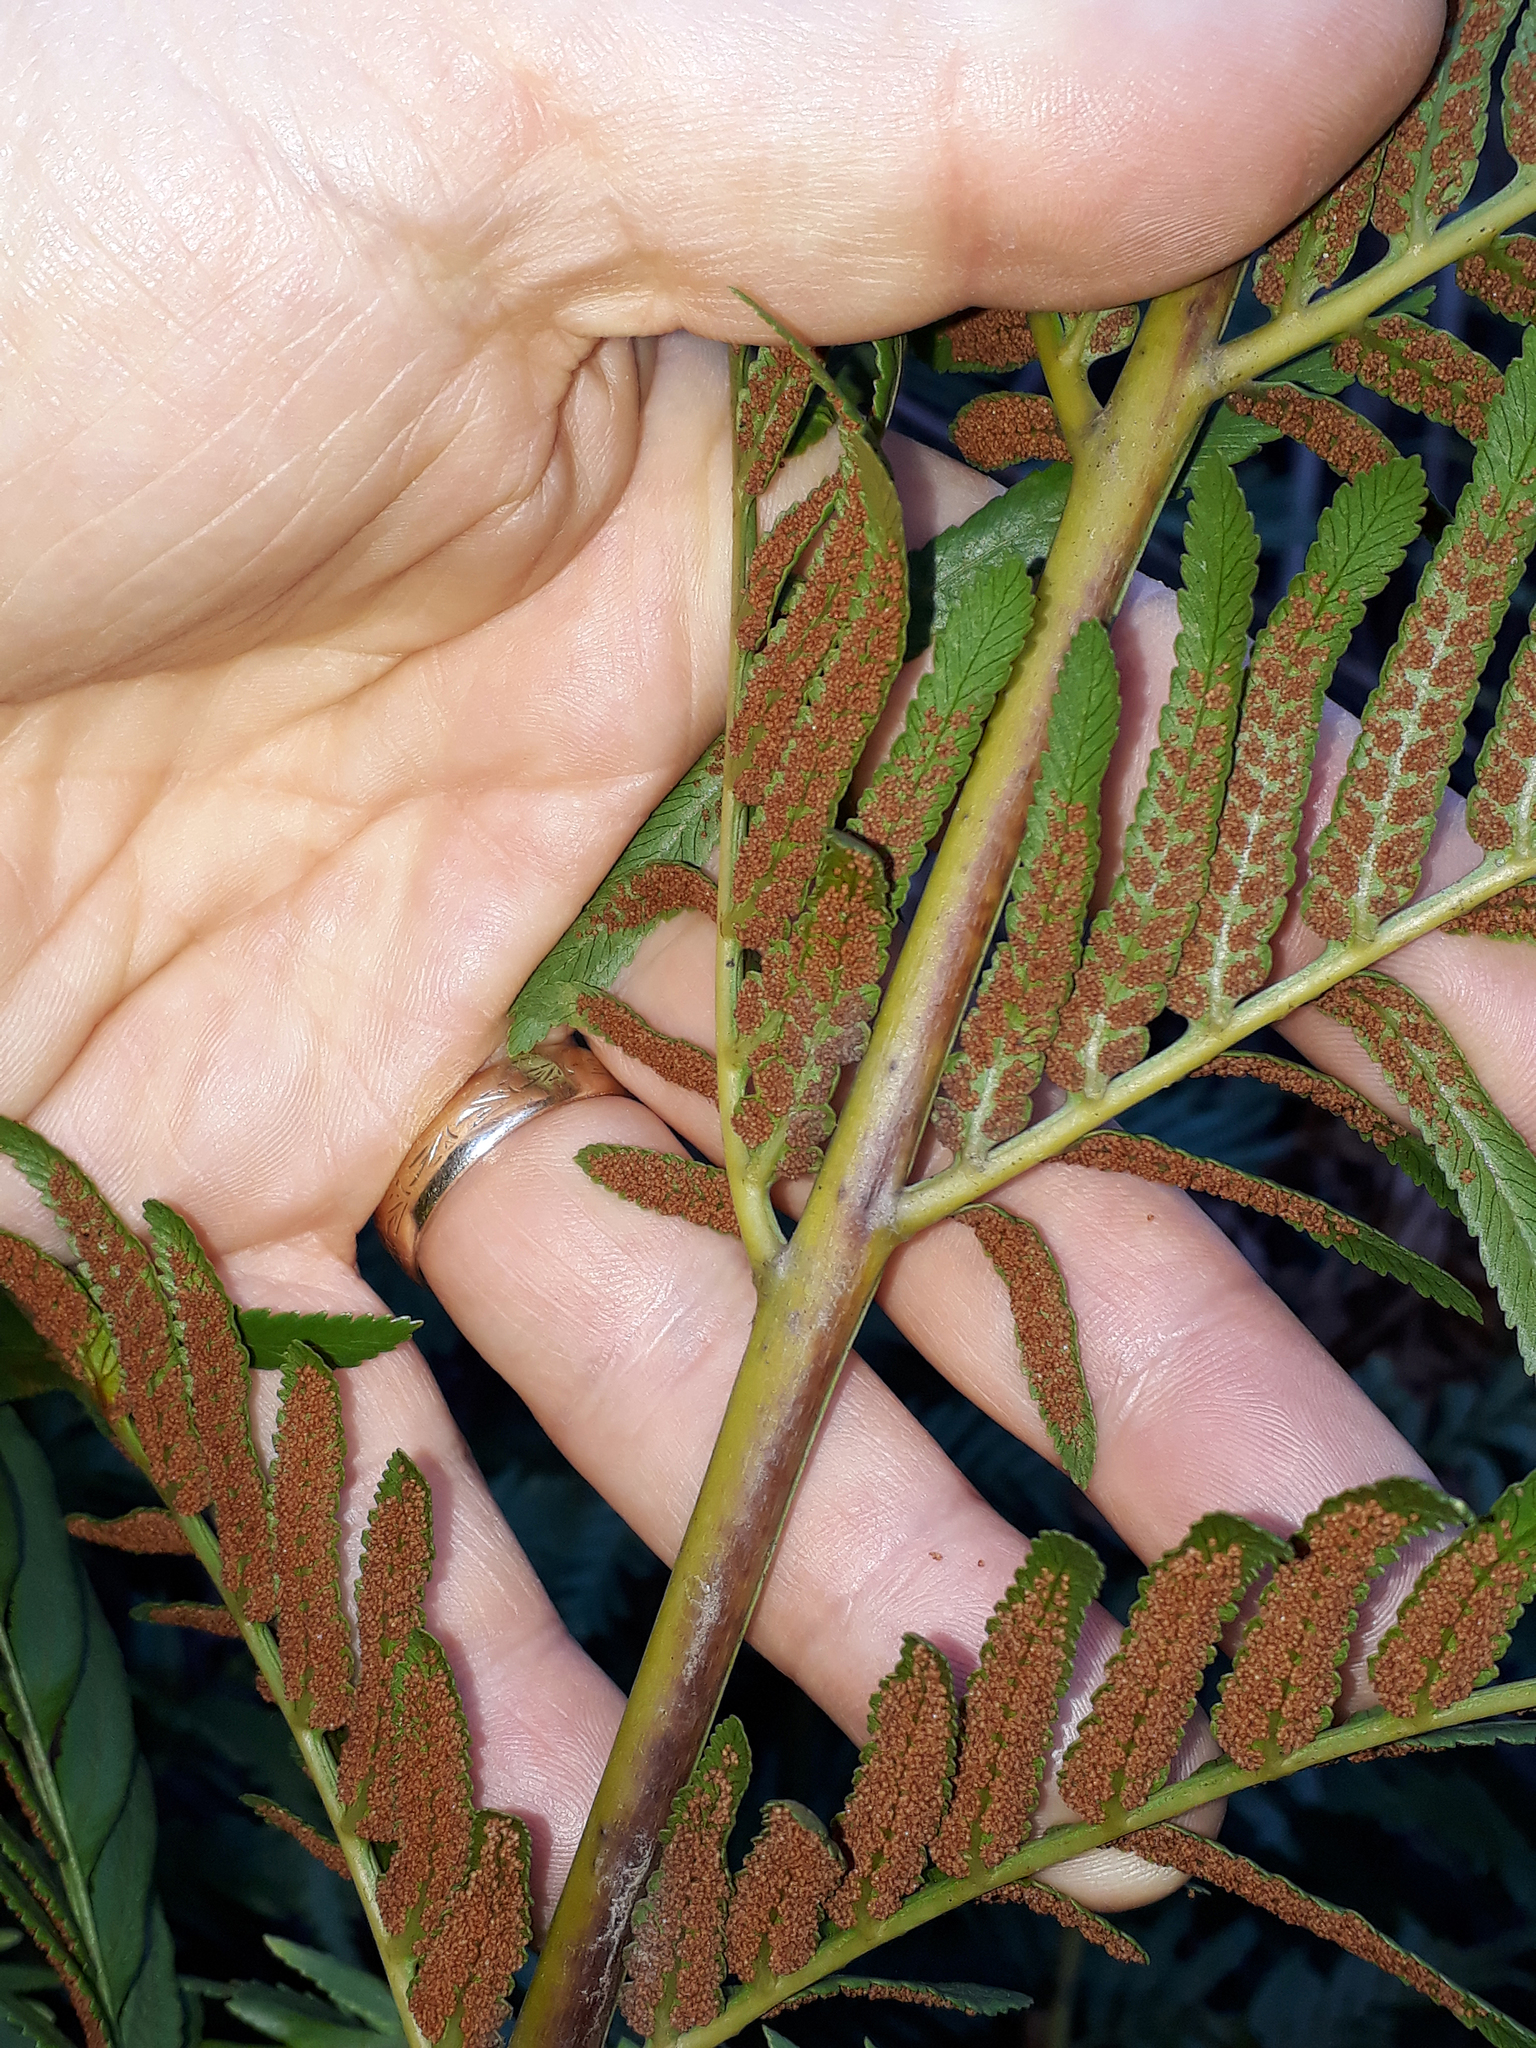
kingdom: Plantae
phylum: Tracheophyta
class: Polypodiopsida
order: Osmundales
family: Osmundaceae
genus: Todea
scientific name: Todea barbara
